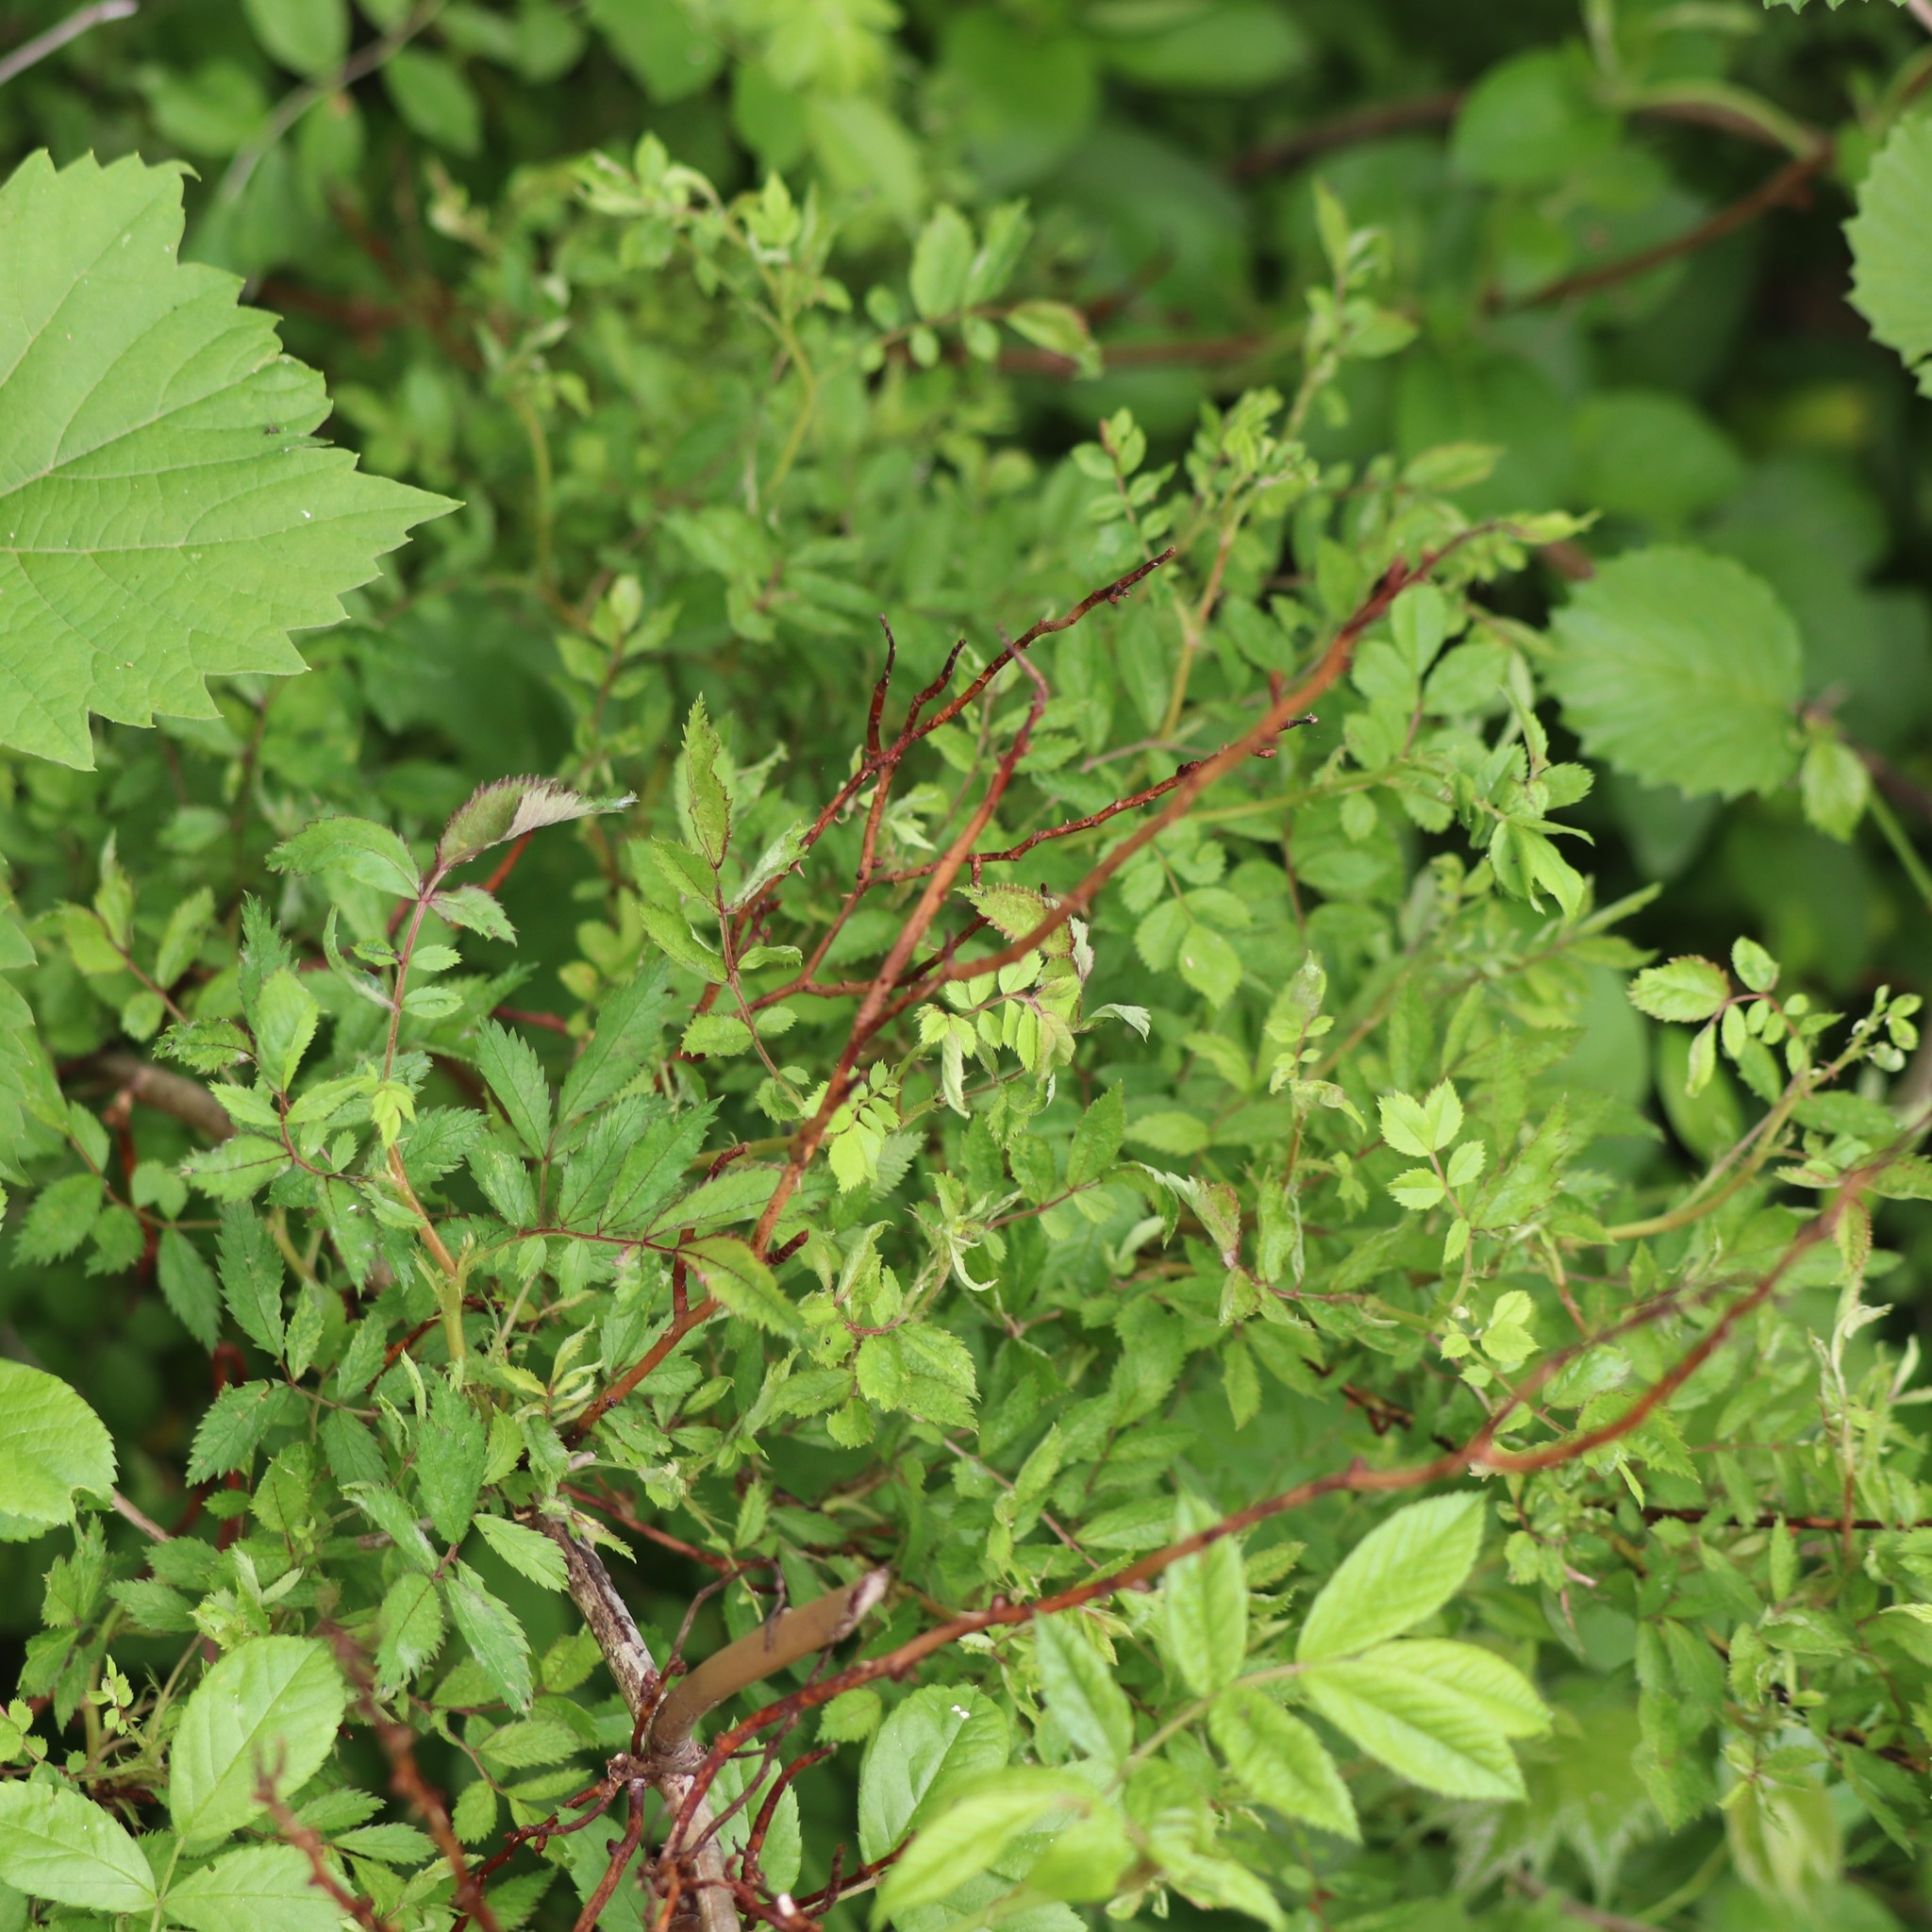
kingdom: Viruses
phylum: Negarnaviricota
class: Ellioviricetes
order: Bunyavirales
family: Fimoviridae
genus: Emaravirus
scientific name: Emaravirus rosae
